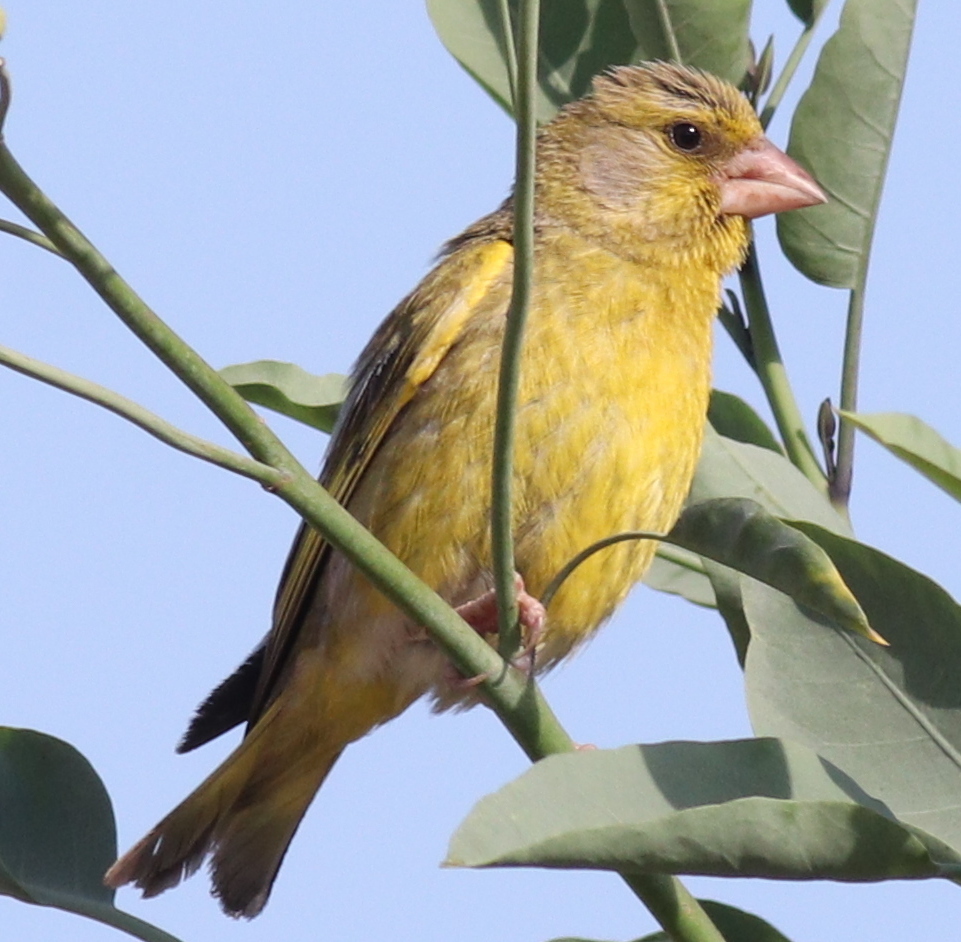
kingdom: Plantae
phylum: Tracheophyta
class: Liliopsida
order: Poales
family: Poaceae
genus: Chloris
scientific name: Chloris chloris
